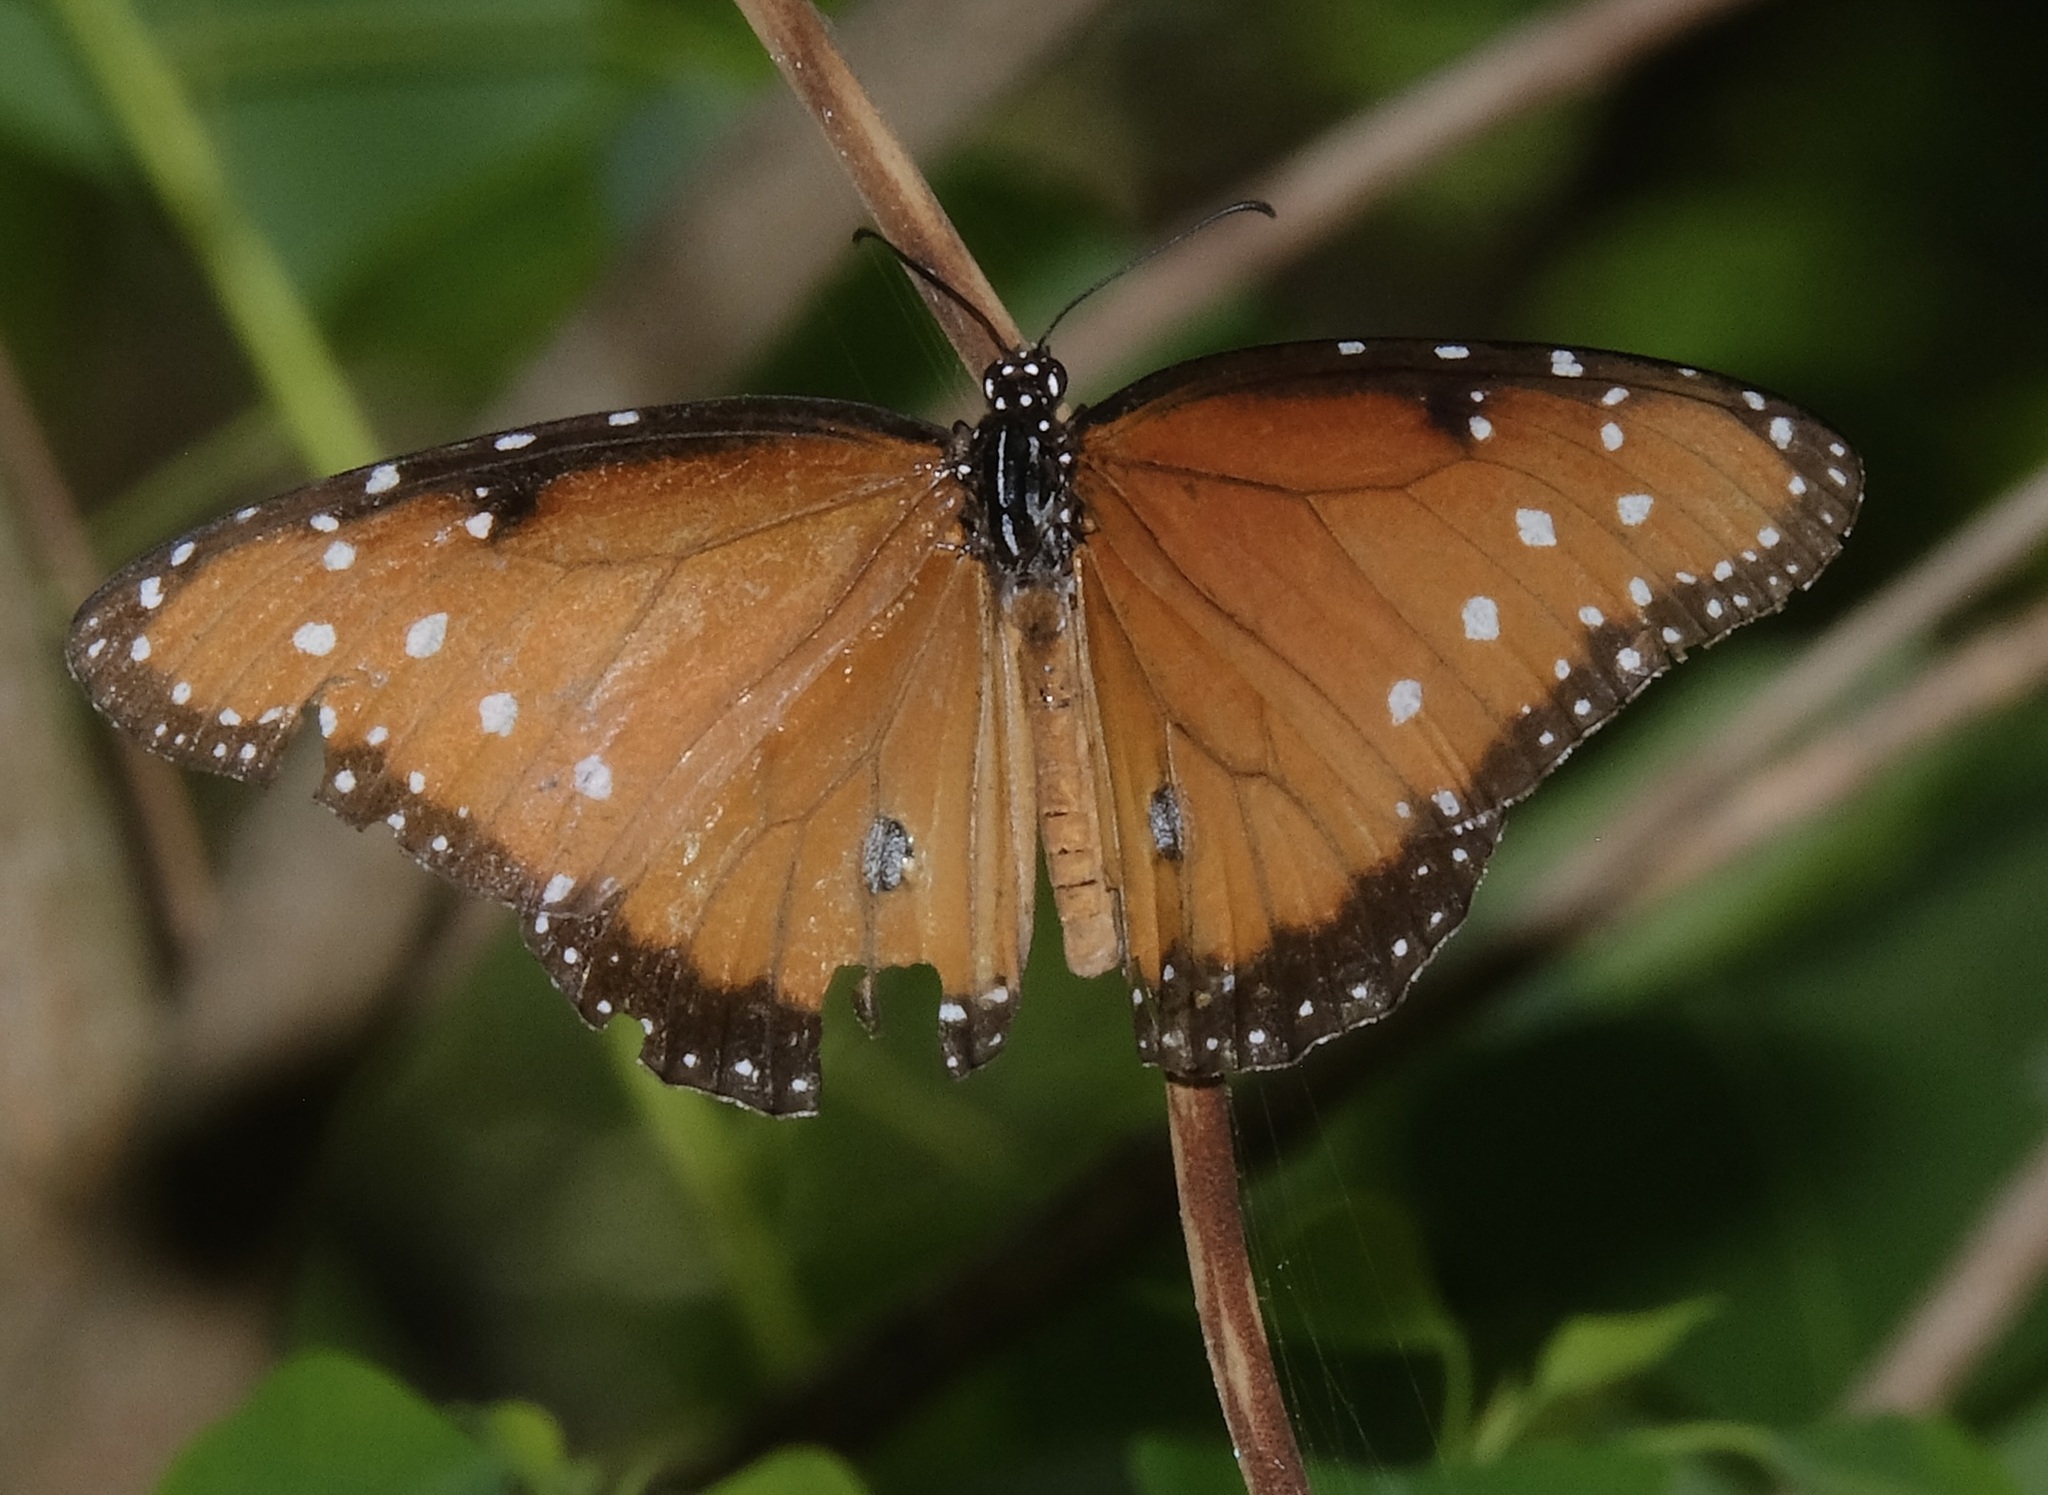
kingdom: Animalia
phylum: Arthropoda
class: Insecta
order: Lepidoptera
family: Nymphalidae
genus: Danaus
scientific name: Danaus gilippus
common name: Queen
